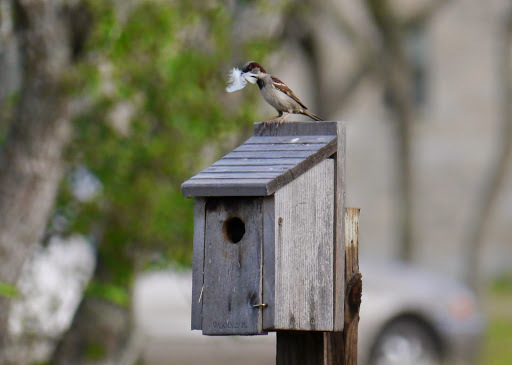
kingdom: Animalia
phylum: Chordata
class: Aves
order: Passeriformes
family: Passeridae
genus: Passer
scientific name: Passer domesticus
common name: House sparrow
